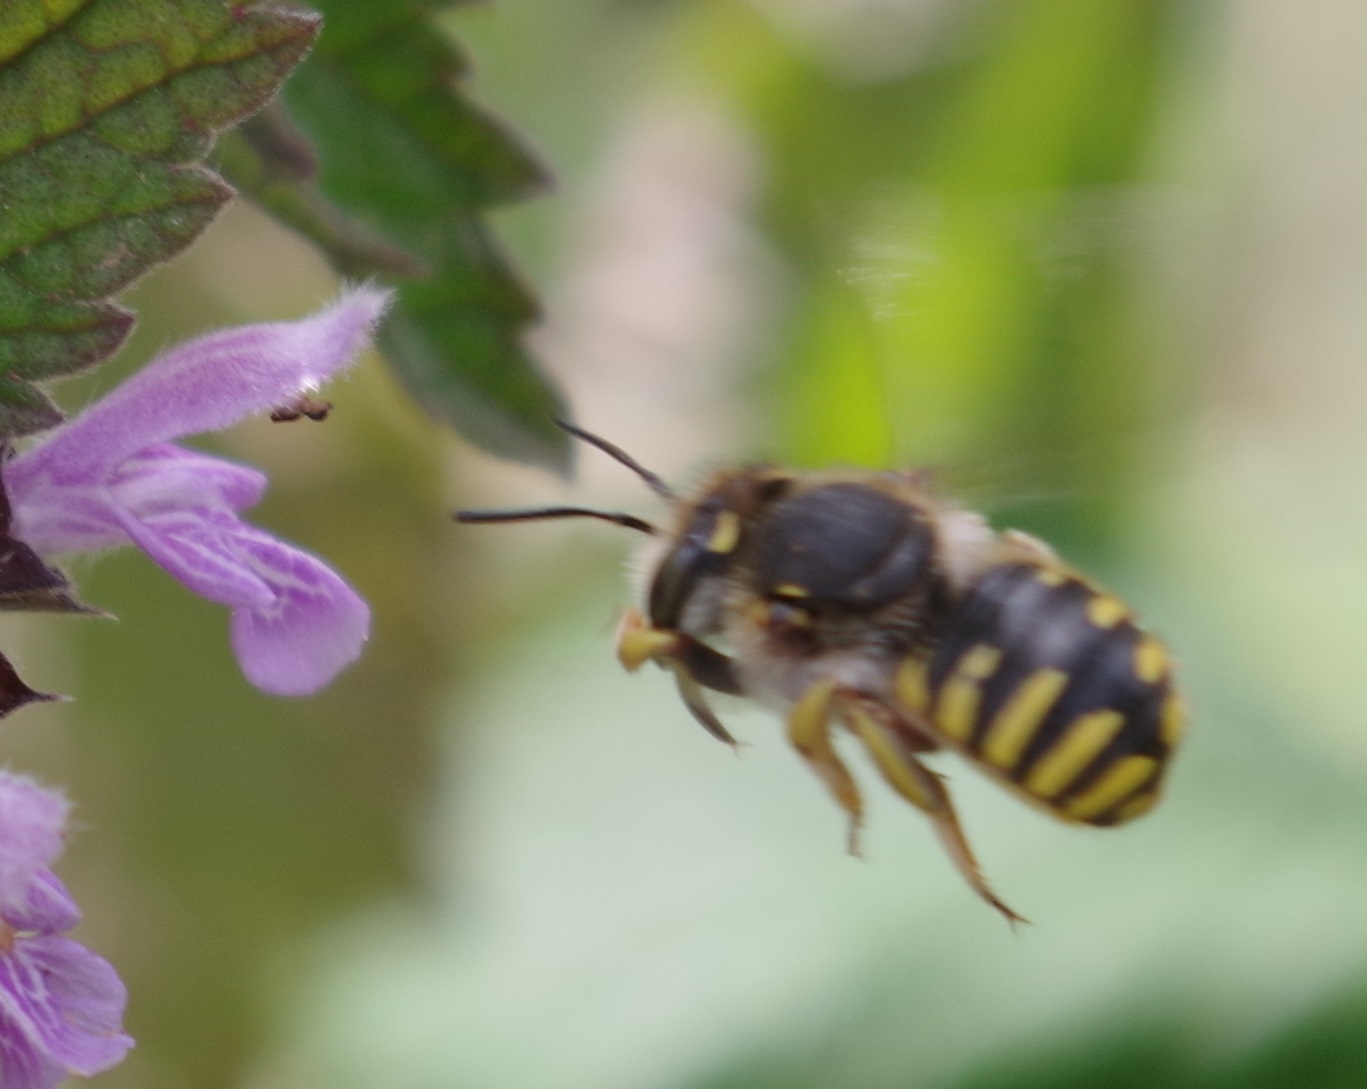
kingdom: Animalia
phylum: Arthropoda
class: Insecta
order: Hymenoptera
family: Megachilidae
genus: Anthidium
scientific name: Anthidium manicatum
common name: Wool carder bee
